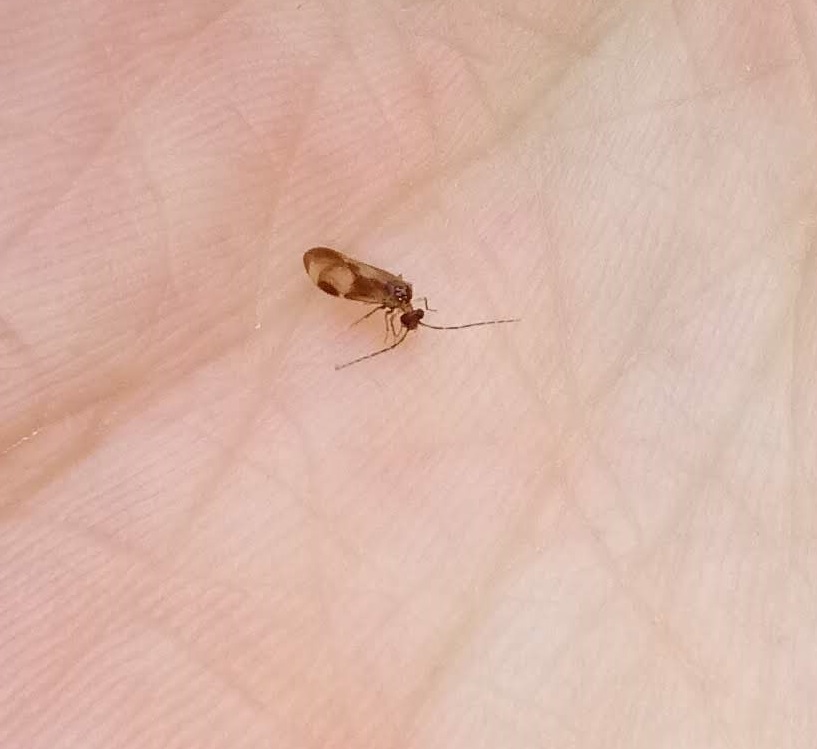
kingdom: Animalia
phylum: Arthropoda
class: Insecta
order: Psocodea
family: Amphipsocidae
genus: Polypsocus
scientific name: Polypsocus corruptus
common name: Corrupt barklouse
